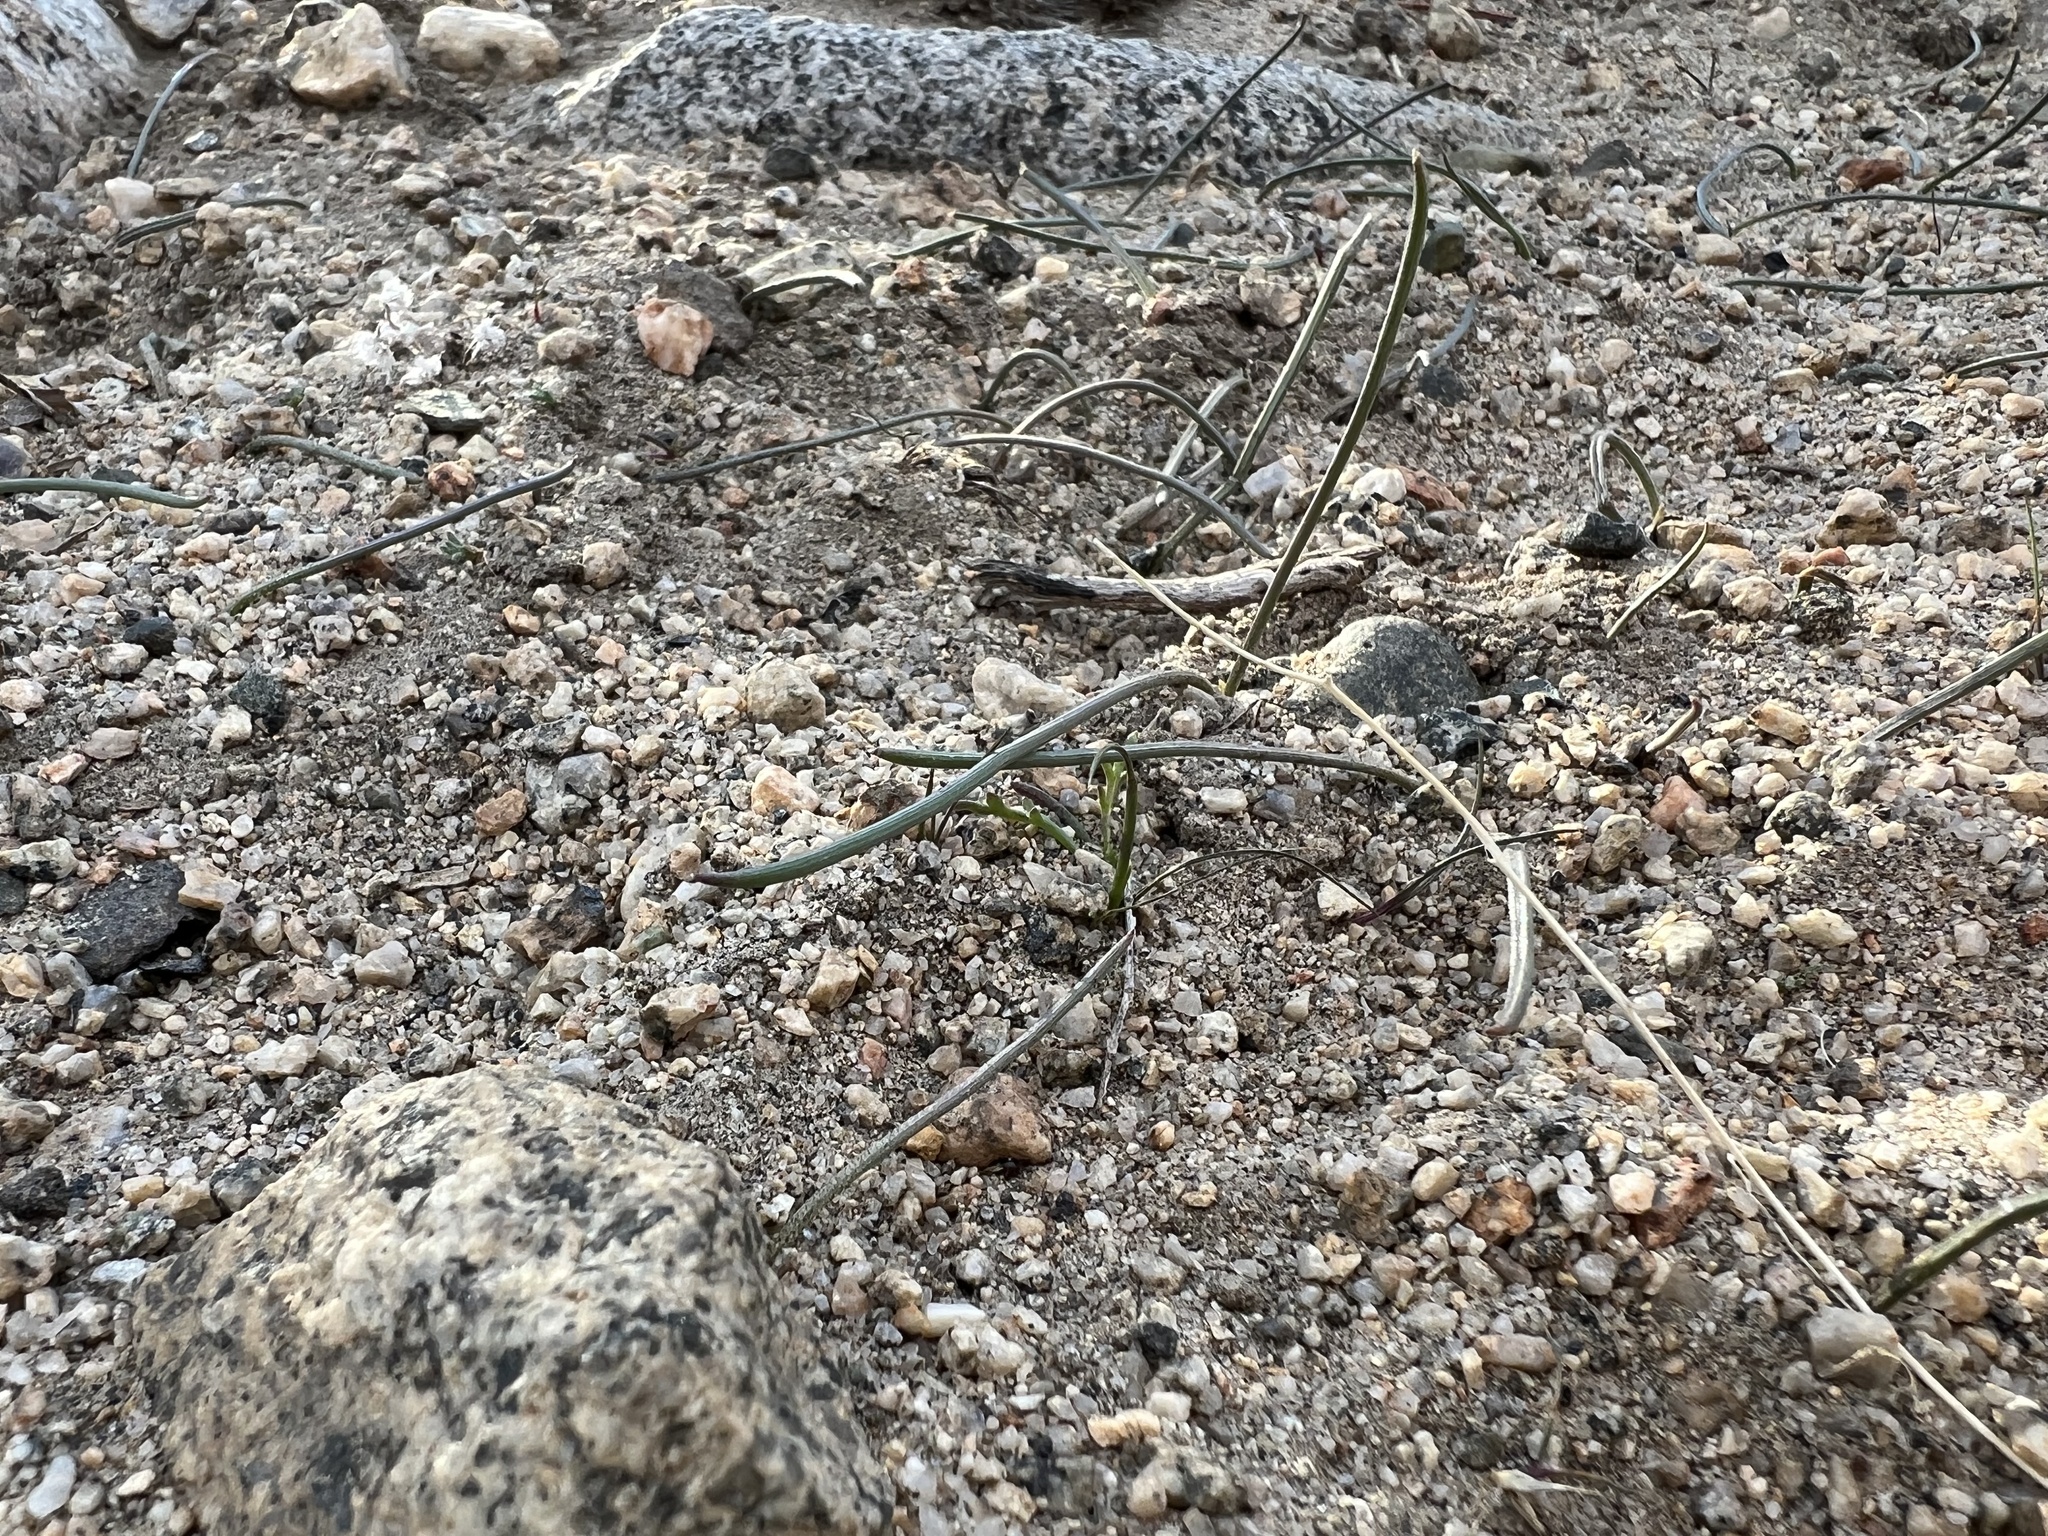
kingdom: Plantae
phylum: Tracheophyta
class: Liliopsida
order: Asparagales
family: Asparagaceae
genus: Muilla
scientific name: Muilla coronata
